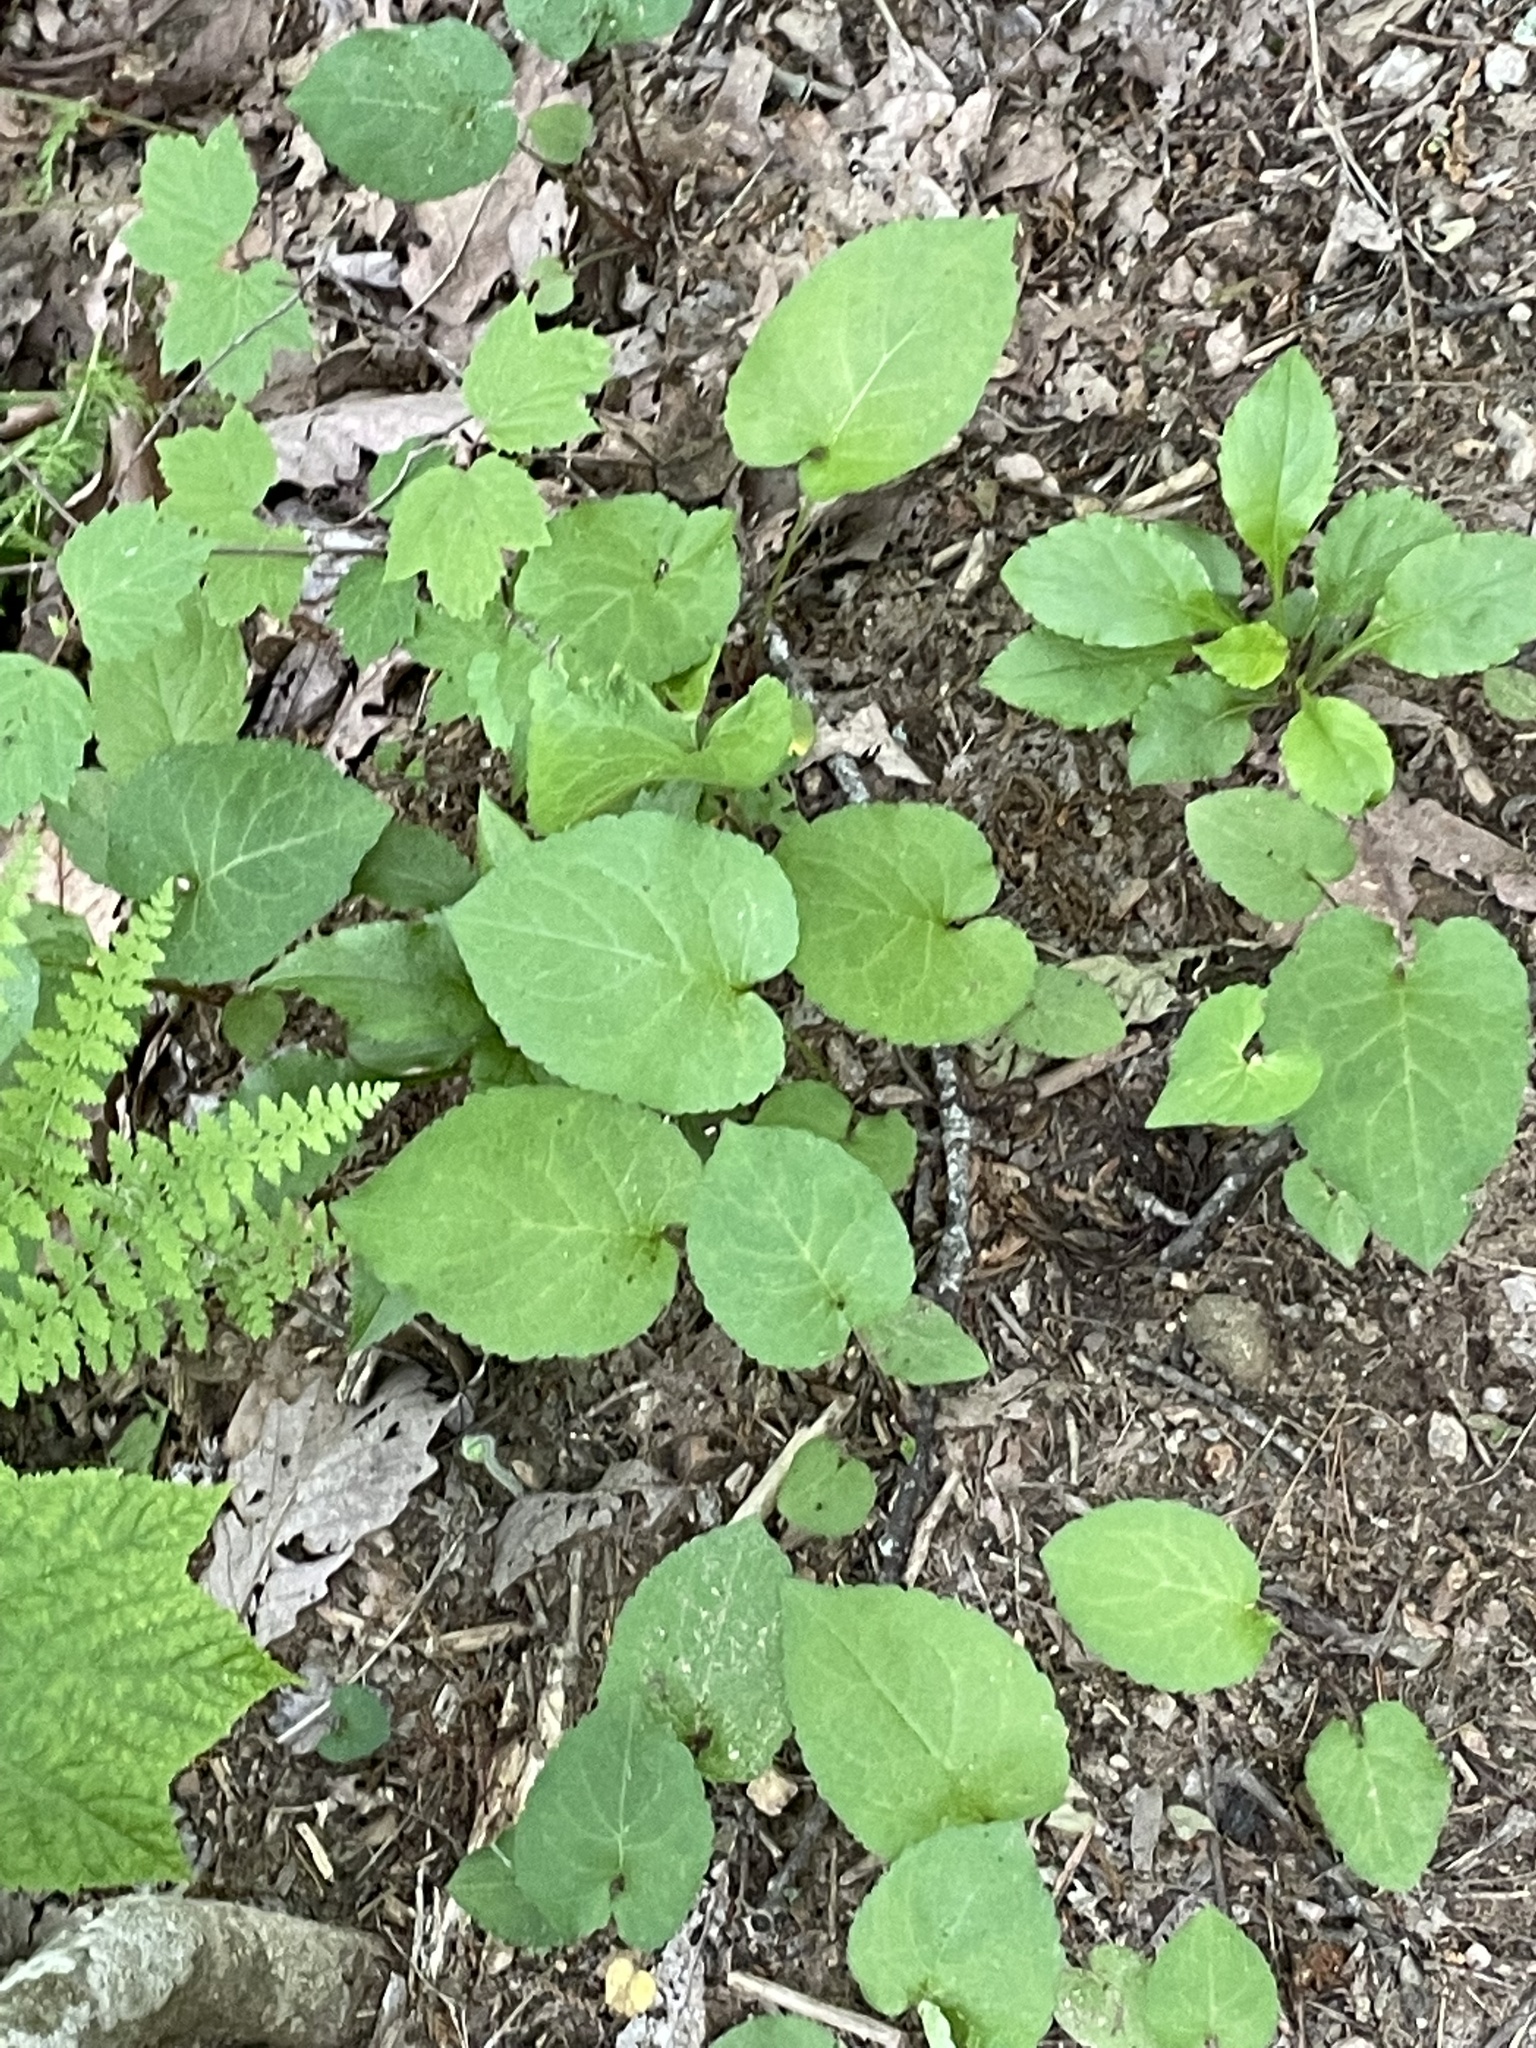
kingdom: Plantae
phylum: Tracheophyta
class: Magnoliopsida
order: Asterales
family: Asteraceae
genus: Eurybia
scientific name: Eurybia macrophylla
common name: Big-leaved aster
